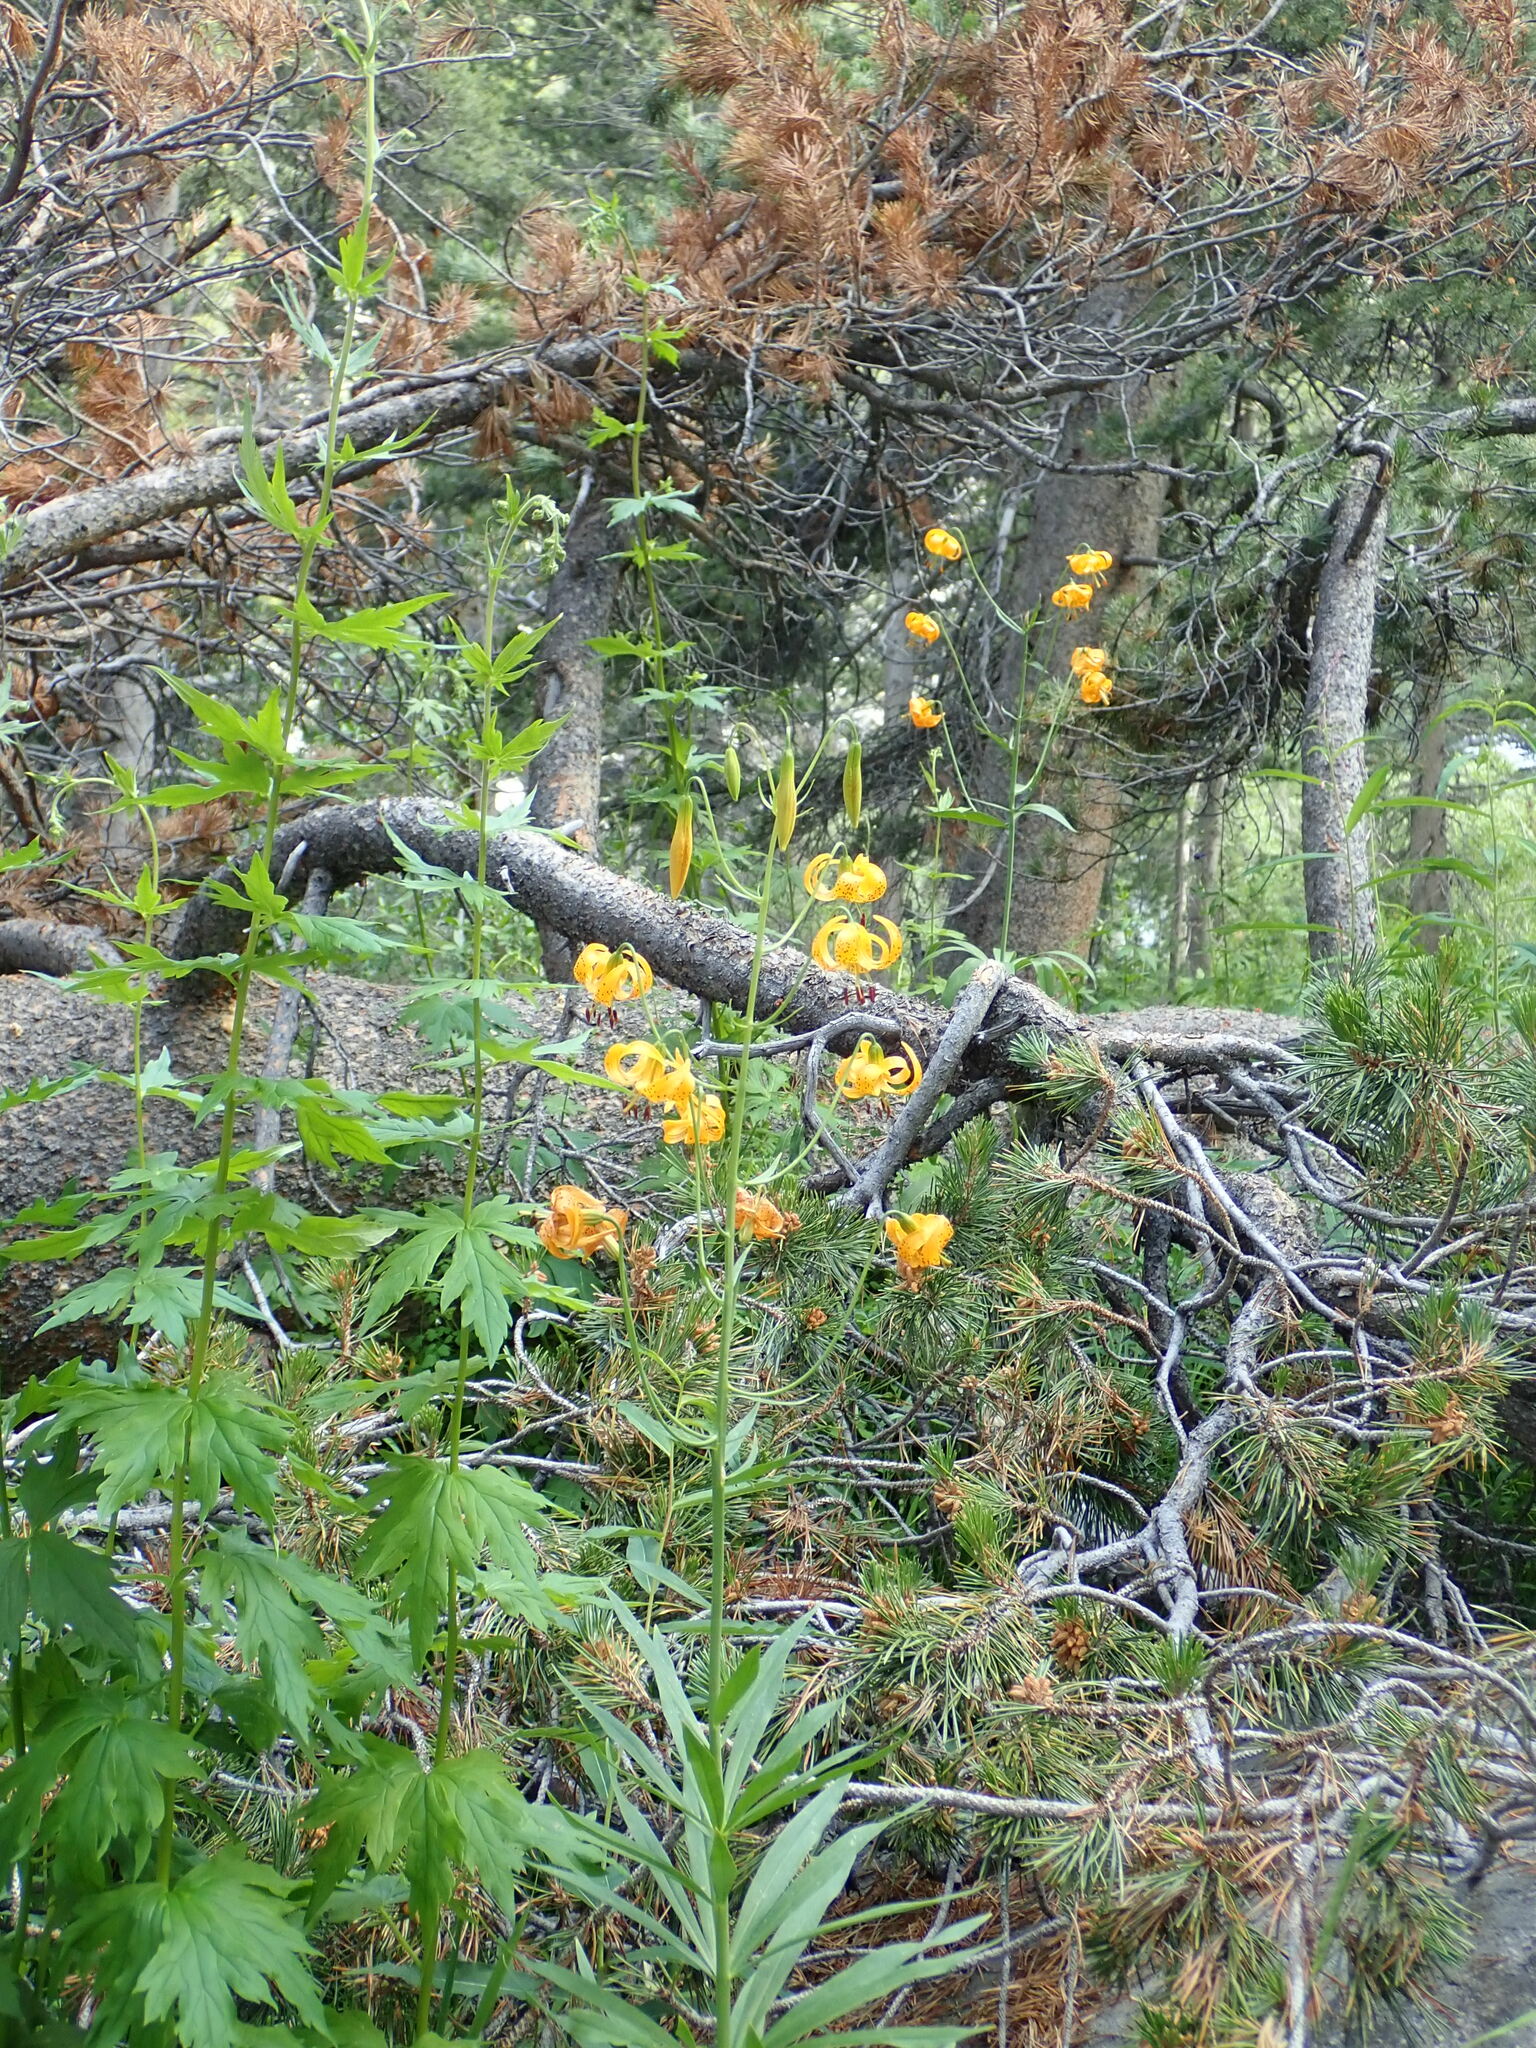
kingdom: Plantae
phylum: Tracheophyta
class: Liliopsida
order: Liliales
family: Liliaceae
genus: Lilium
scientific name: Lilium kelleyanum
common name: Kelley's lily
